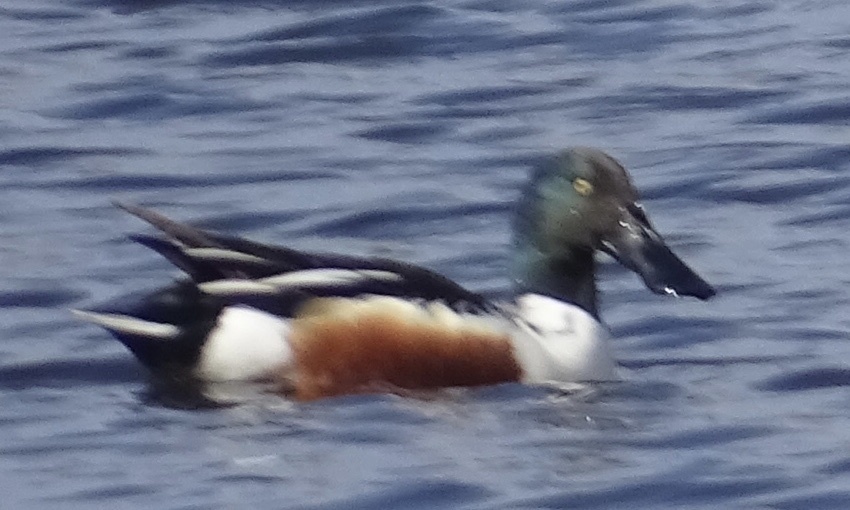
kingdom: Animalia
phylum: Chordata
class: Aves
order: Anseriformes
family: Anatidae
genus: Spatula
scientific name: Spatula clypeata
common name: Northern shoveler
